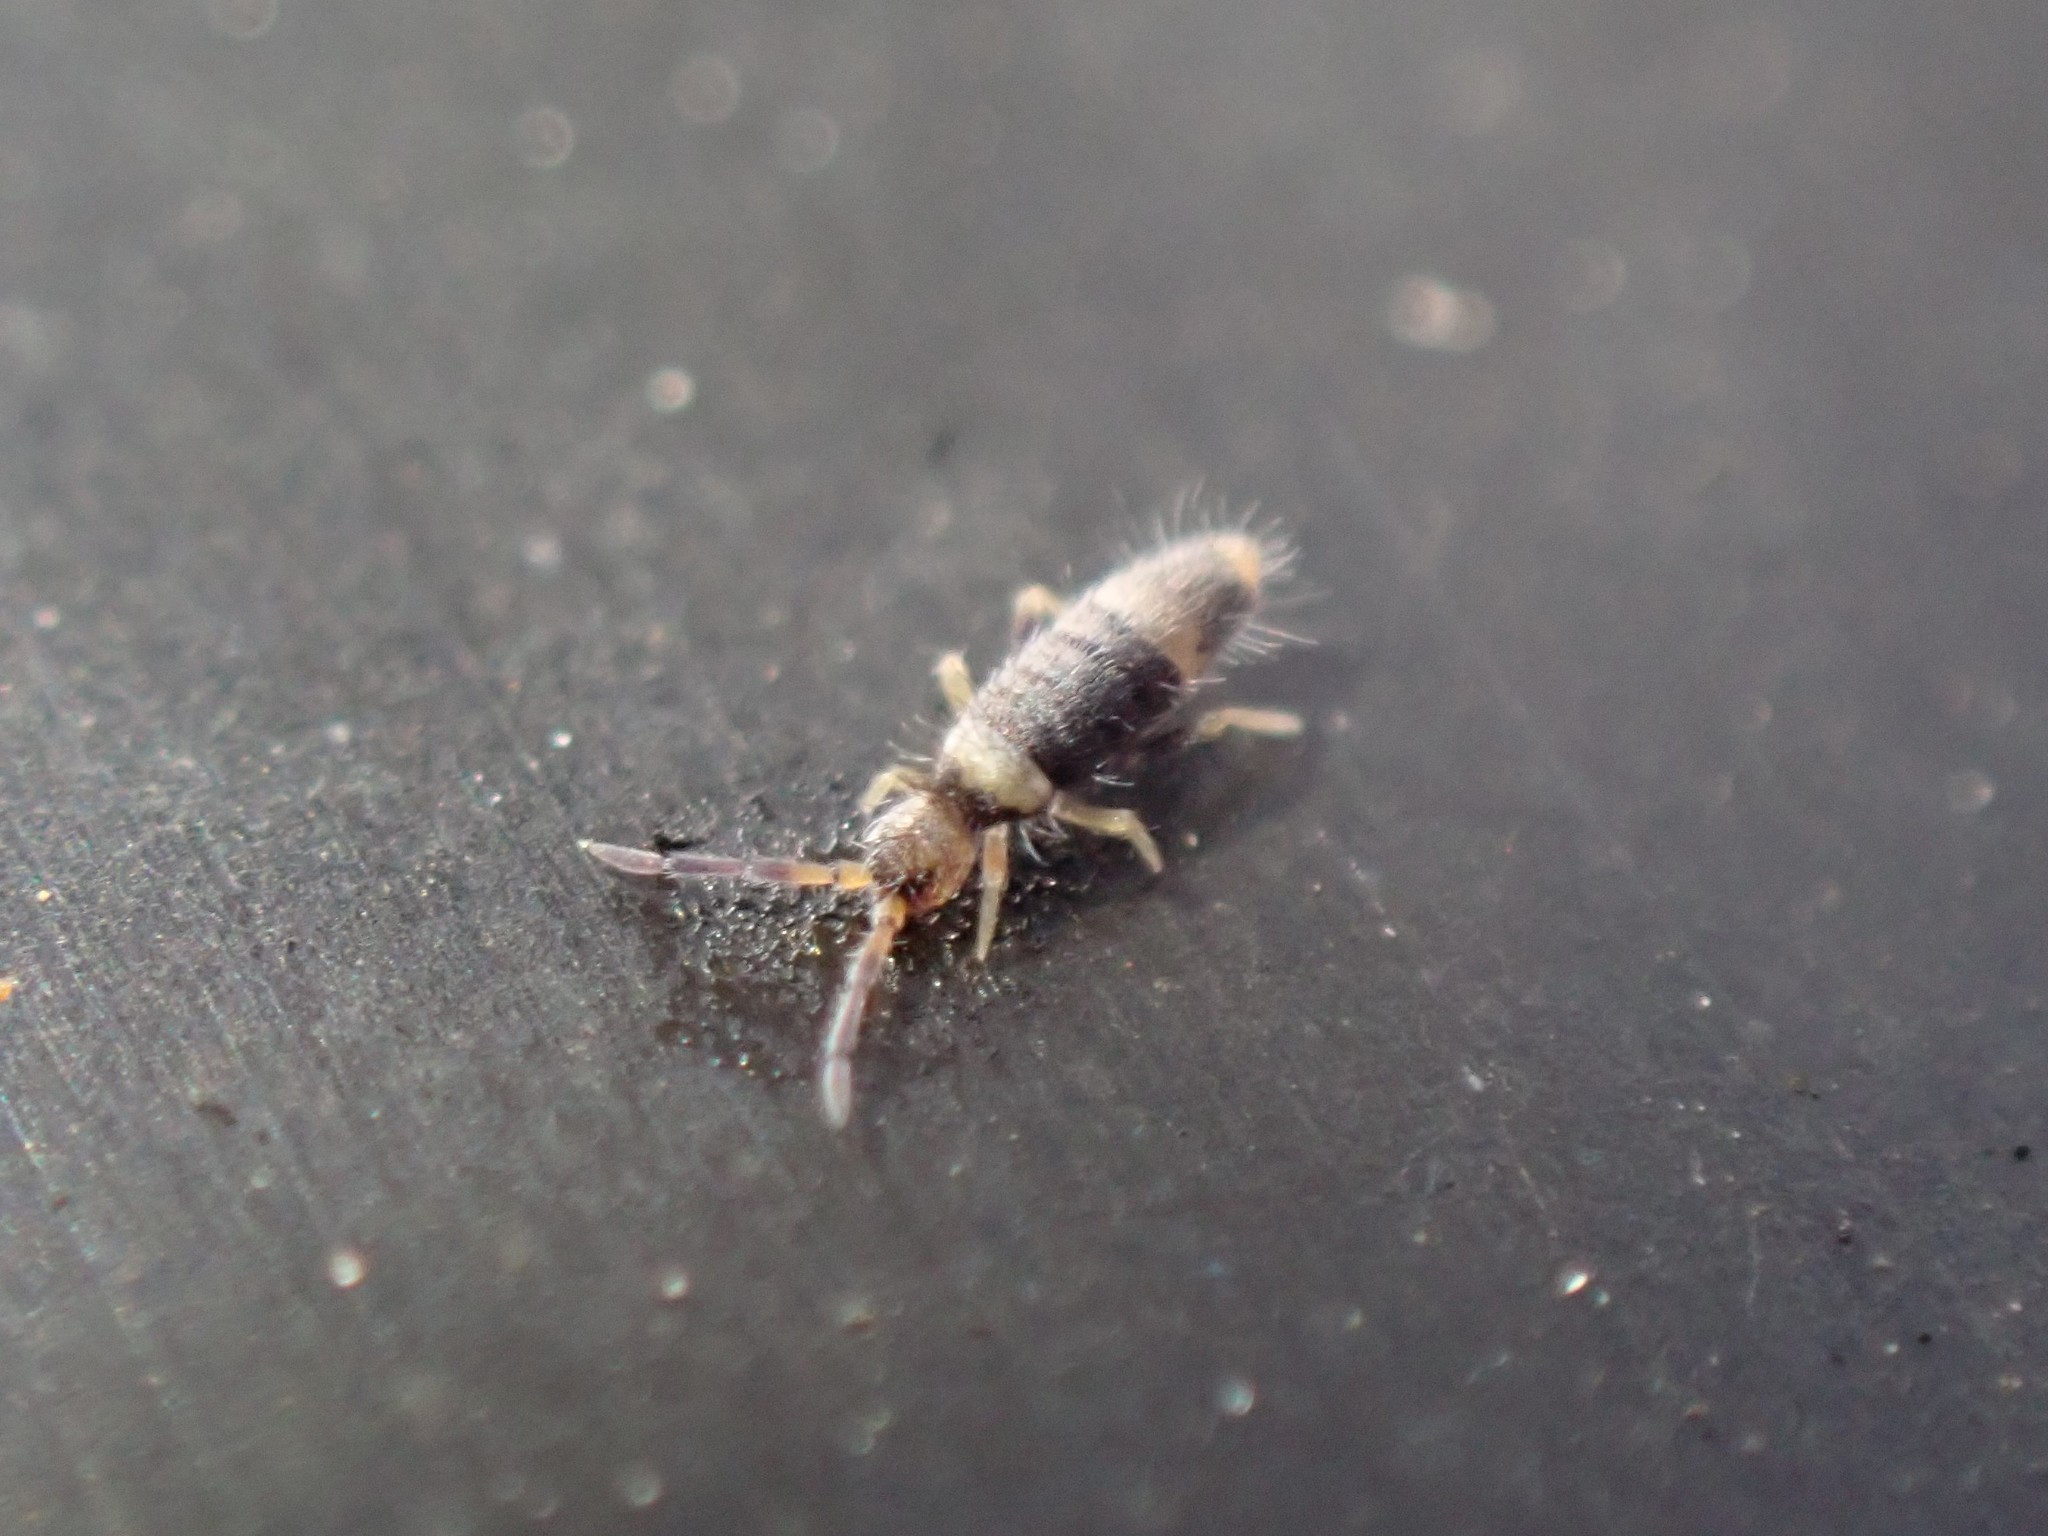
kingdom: Animalia
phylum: Arthropoda
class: Collembola
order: Entomobryomorpha
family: Entomobryidae
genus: Entomobrya
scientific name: Entomobrya albocincta
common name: Springtail
